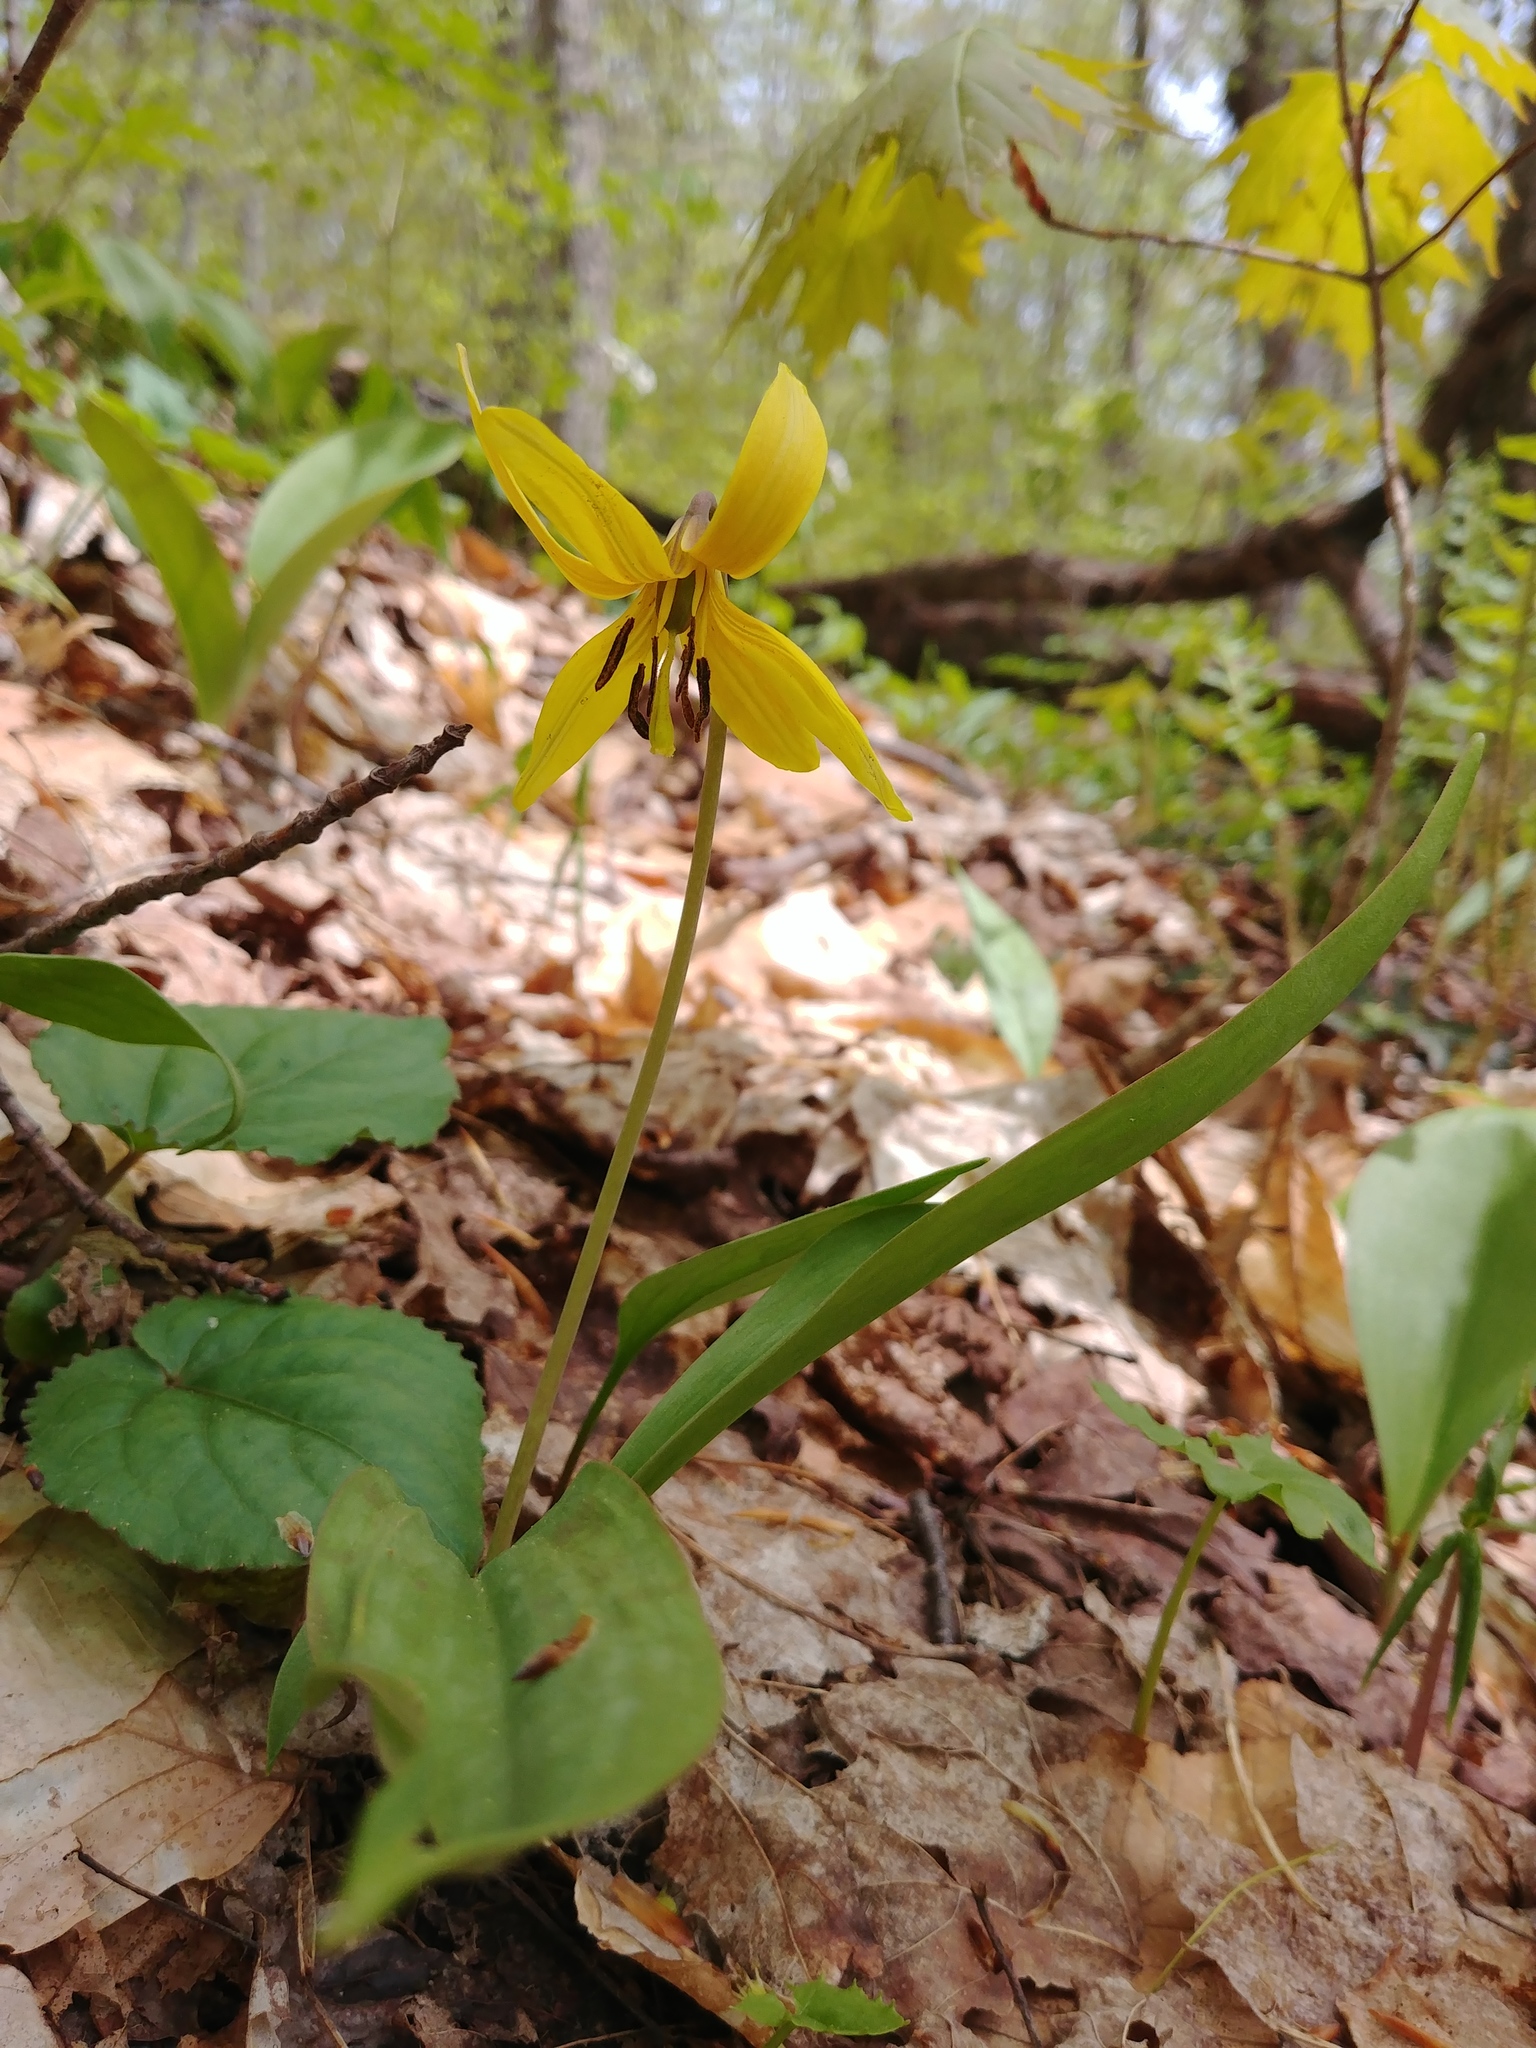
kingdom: Plantae
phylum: Tracheophyta
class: Liliopsida
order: Liliales
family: Liliaceae
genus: Erythronium
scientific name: Erythronium americanum
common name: Yellow adder's-tongue
